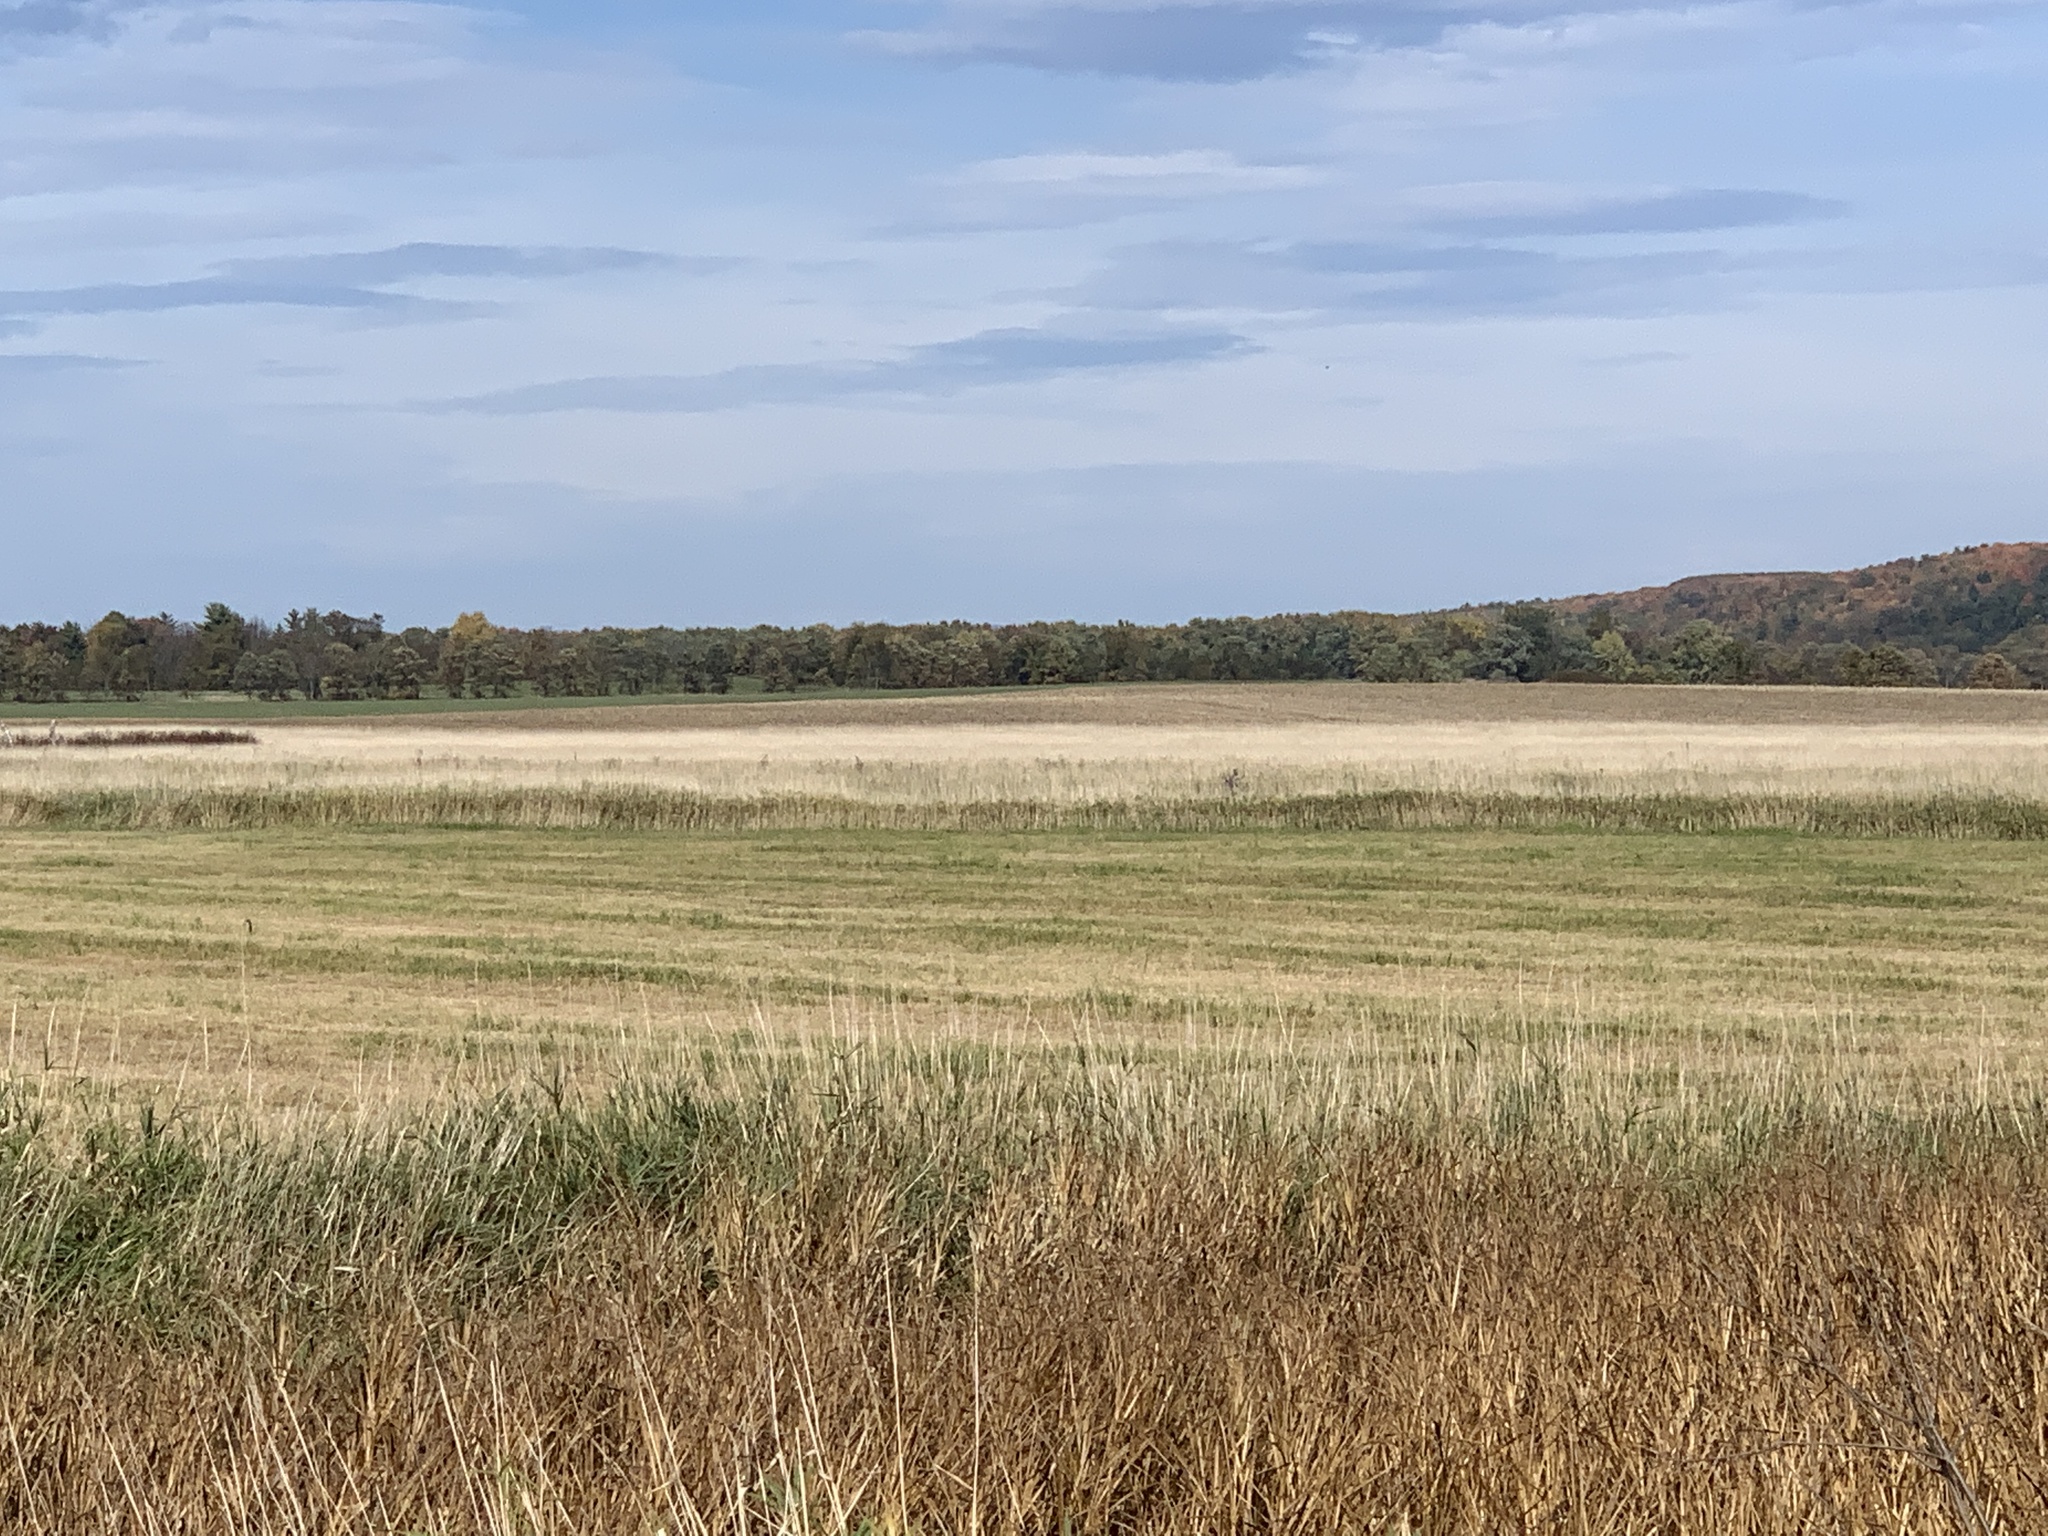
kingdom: Plantae
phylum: Tracheophyta
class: Liliopsida
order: Poales
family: Poaceae
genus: Phalaris
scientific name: Phalaris arundinacea
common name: Reed canary-grass
